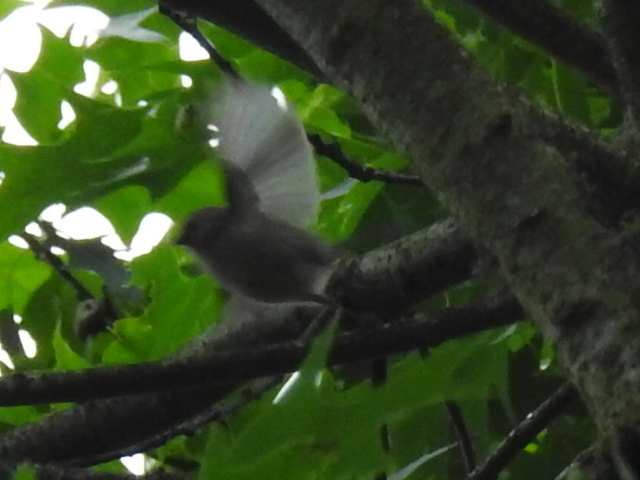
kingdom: Animalia
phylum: Chordata
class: Aves
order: Passeriformes
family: Aegithalidae
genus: Psaltriparus
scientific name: Psaltriparus minimus
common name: American bushtit
